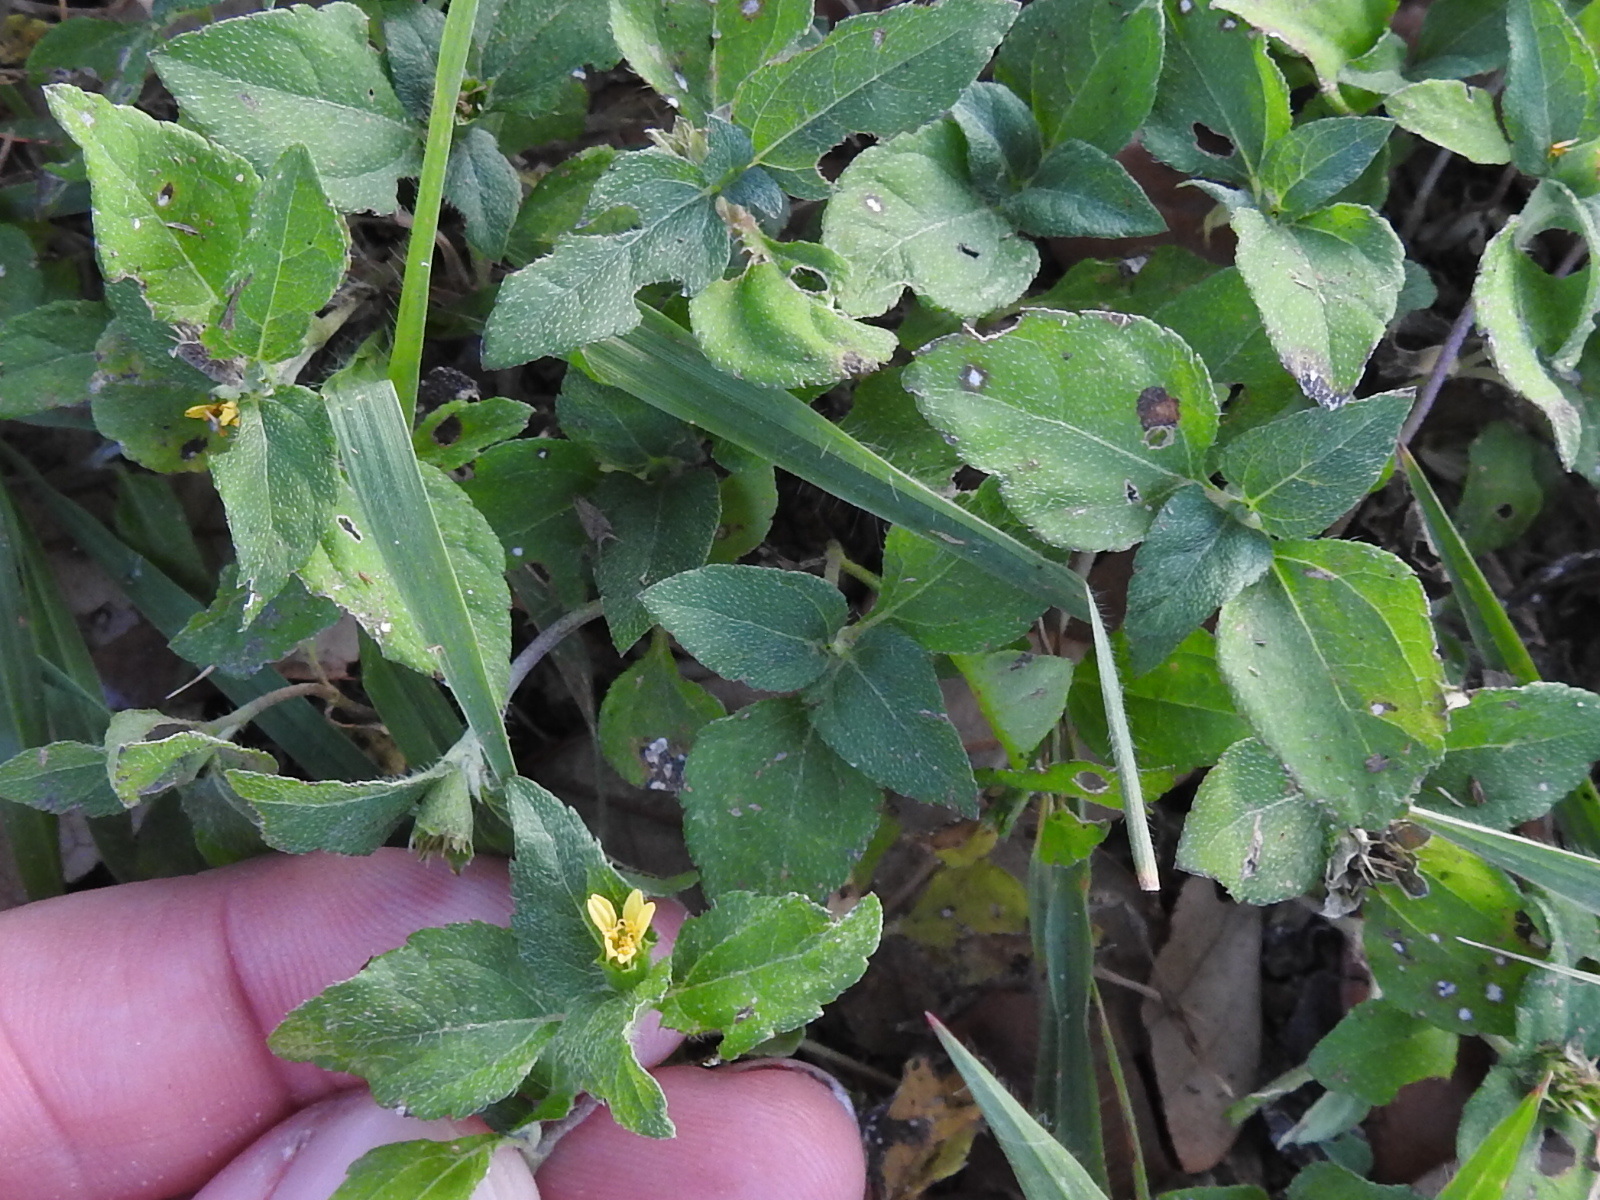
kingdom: Plantae
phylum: Tracheophyta
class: Magnoliopsida
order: Asterales
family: Asteraceae
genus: Calyptocarpus
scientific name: Calyptocarpus vialis
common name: Straggler daisy
